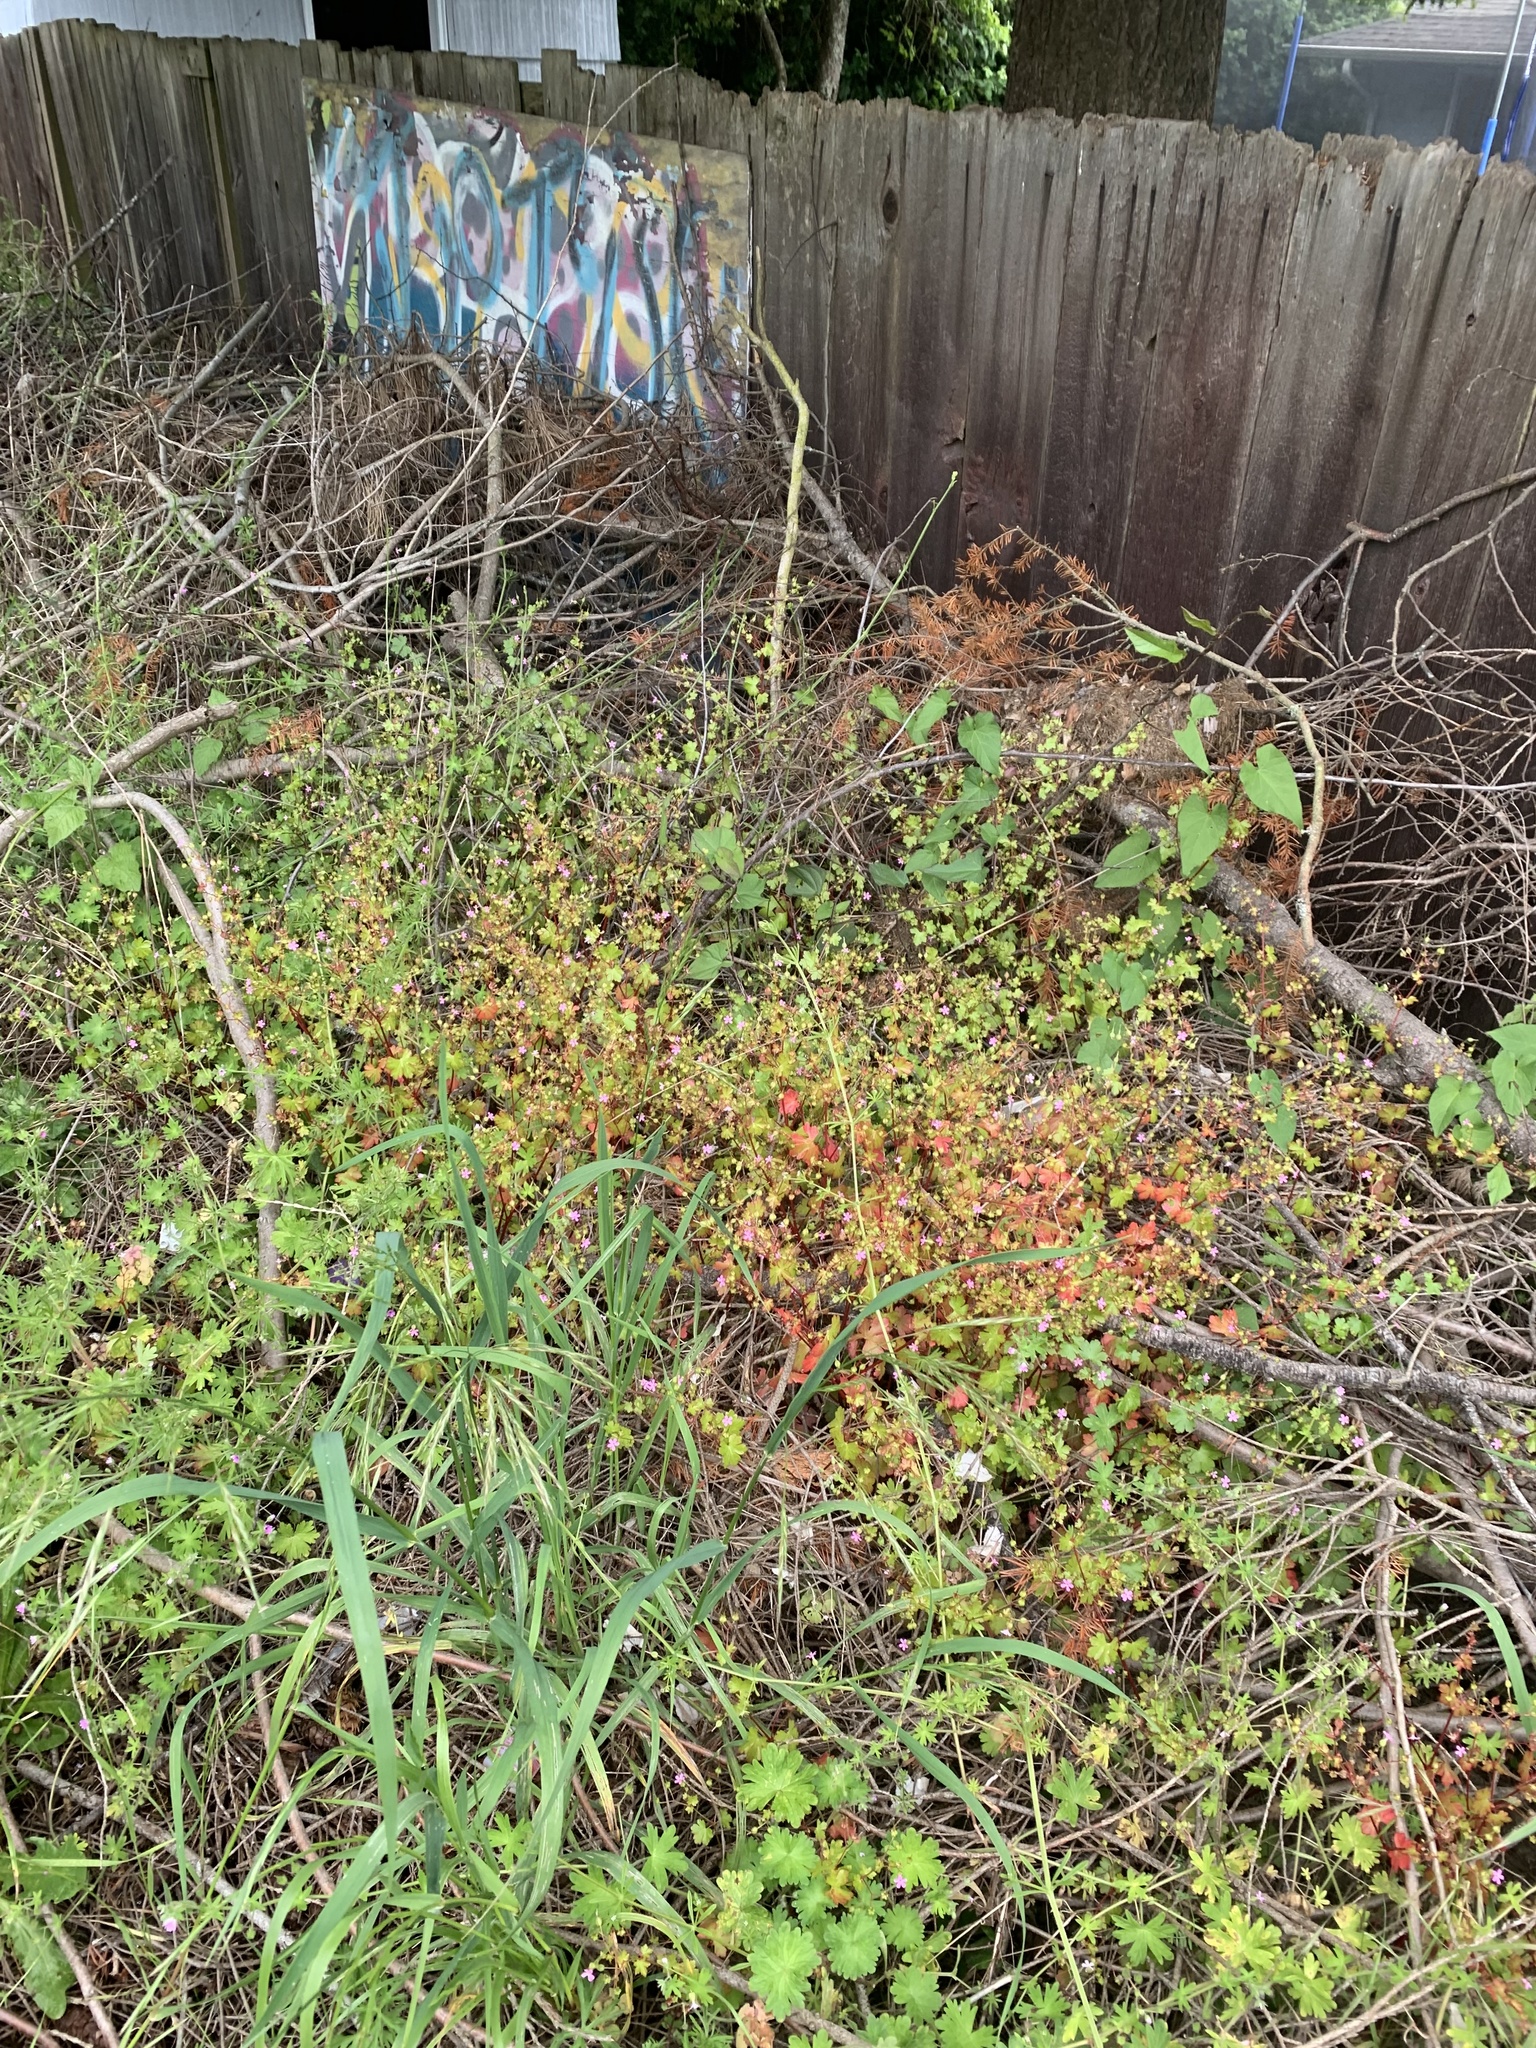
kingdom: Plantae
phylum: Tracheophyta
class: Magnoliopsida
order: Geraniales
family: Geraniaceae
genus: Geranium
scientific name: Geranium lucidum
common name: Shining crane's-bill
